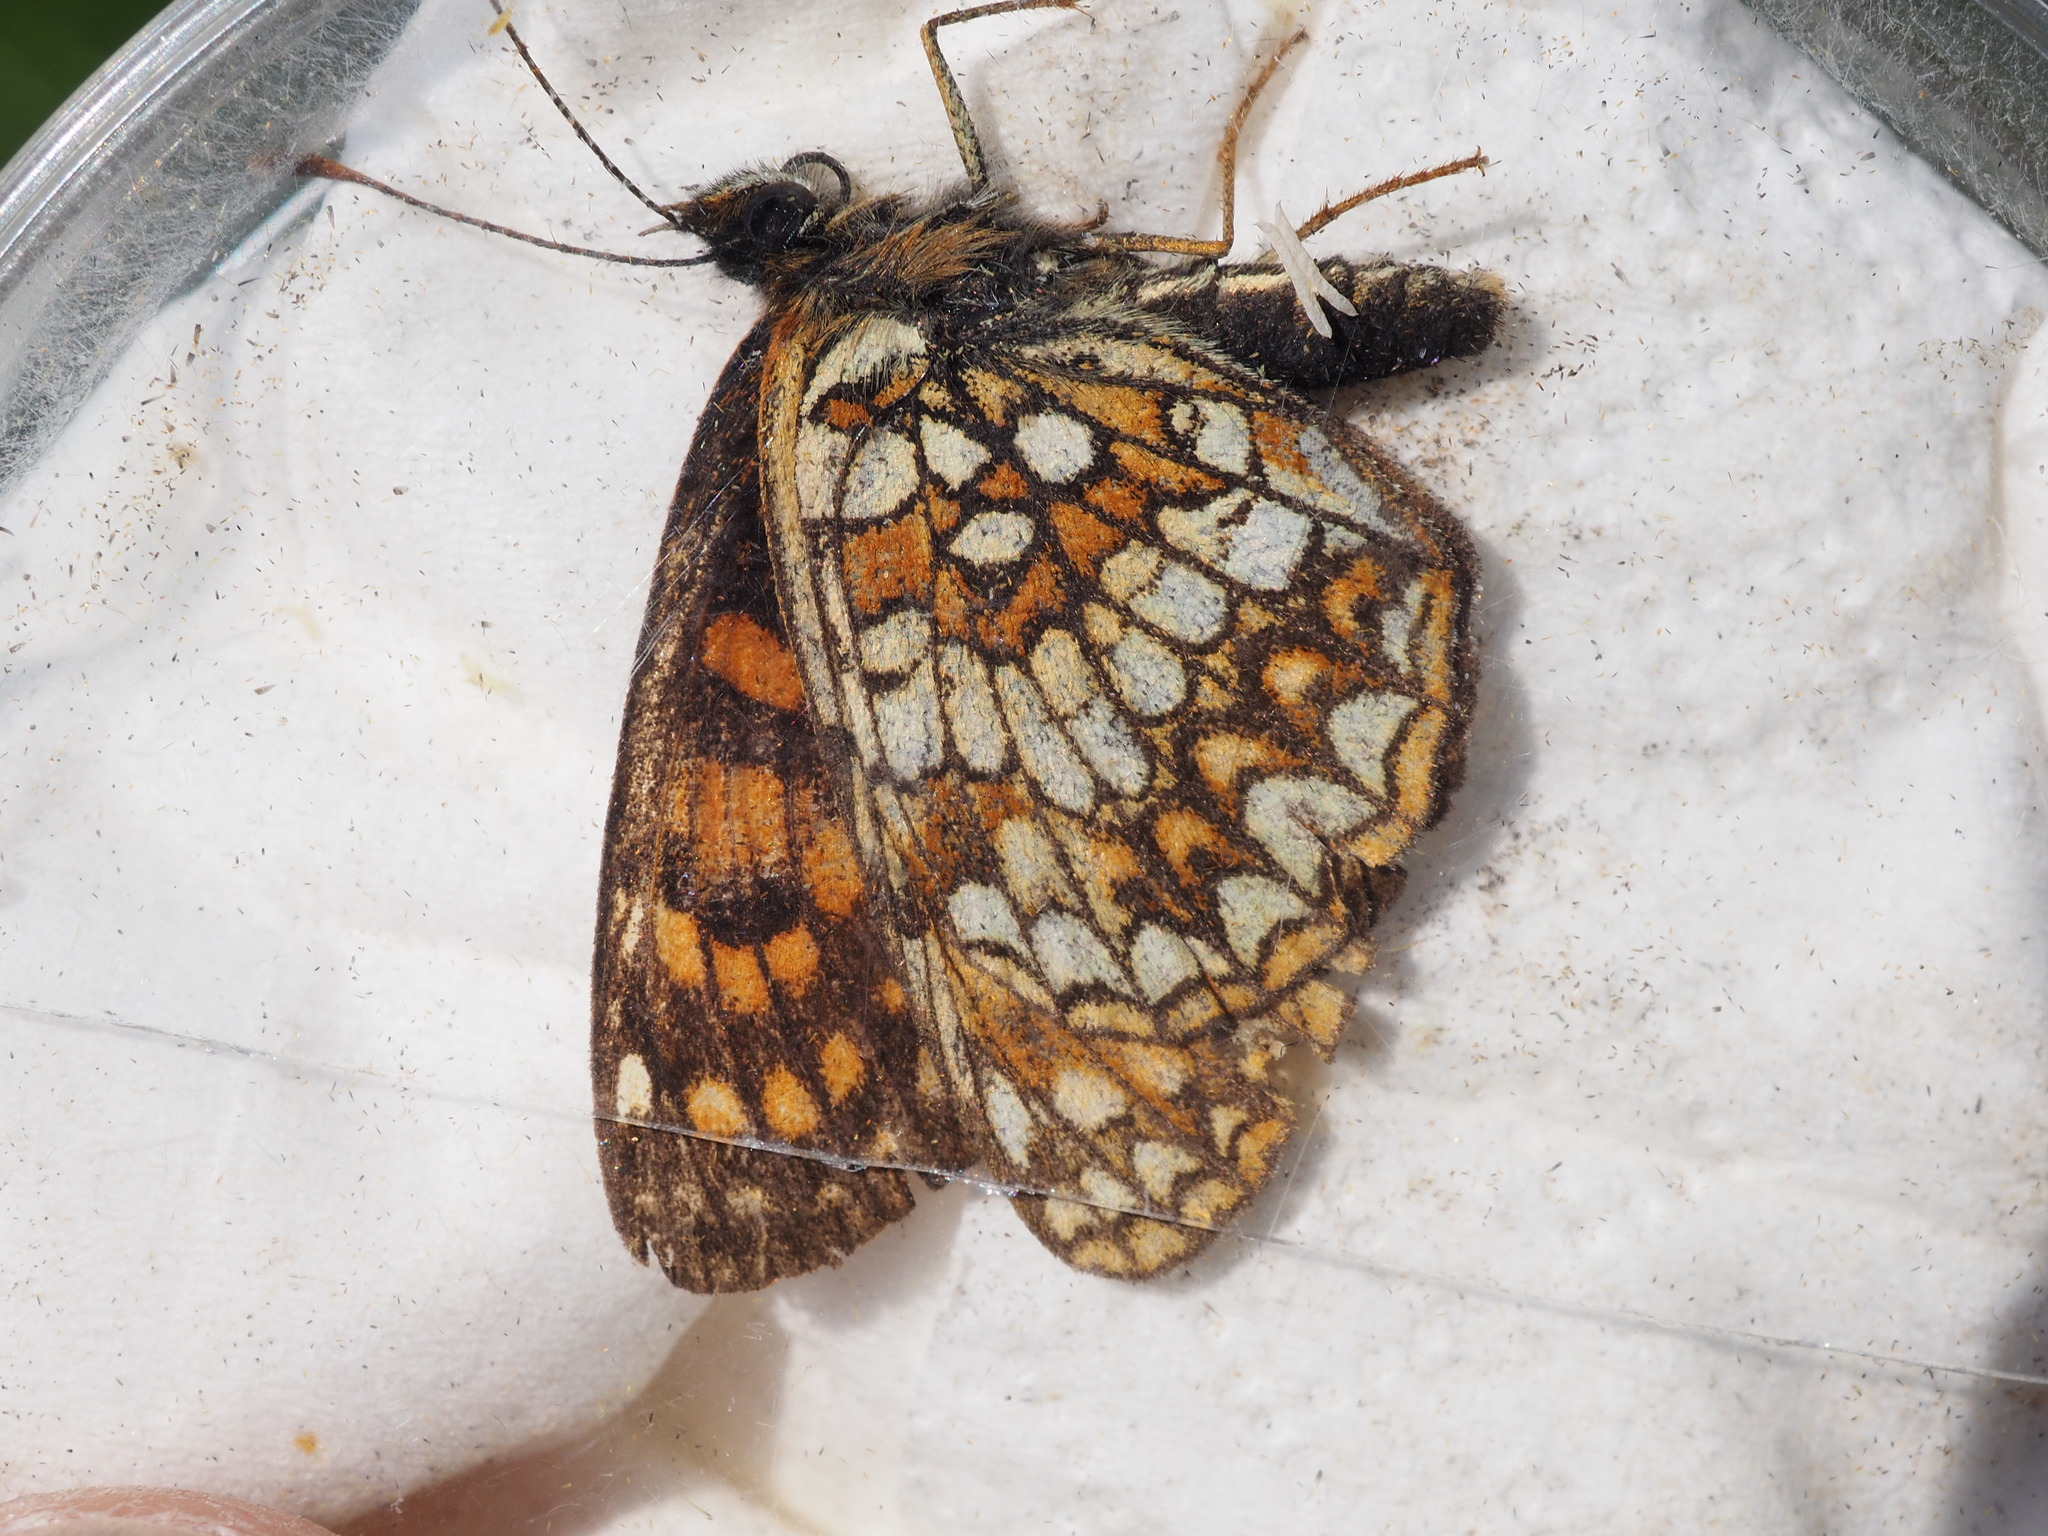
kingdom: Animalia
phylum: Arthropoda
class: Insecta
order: Lepidoptera
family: Nymphalidae
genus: Melitaea
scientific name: Melitaea diamina
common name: False heath fritillary
